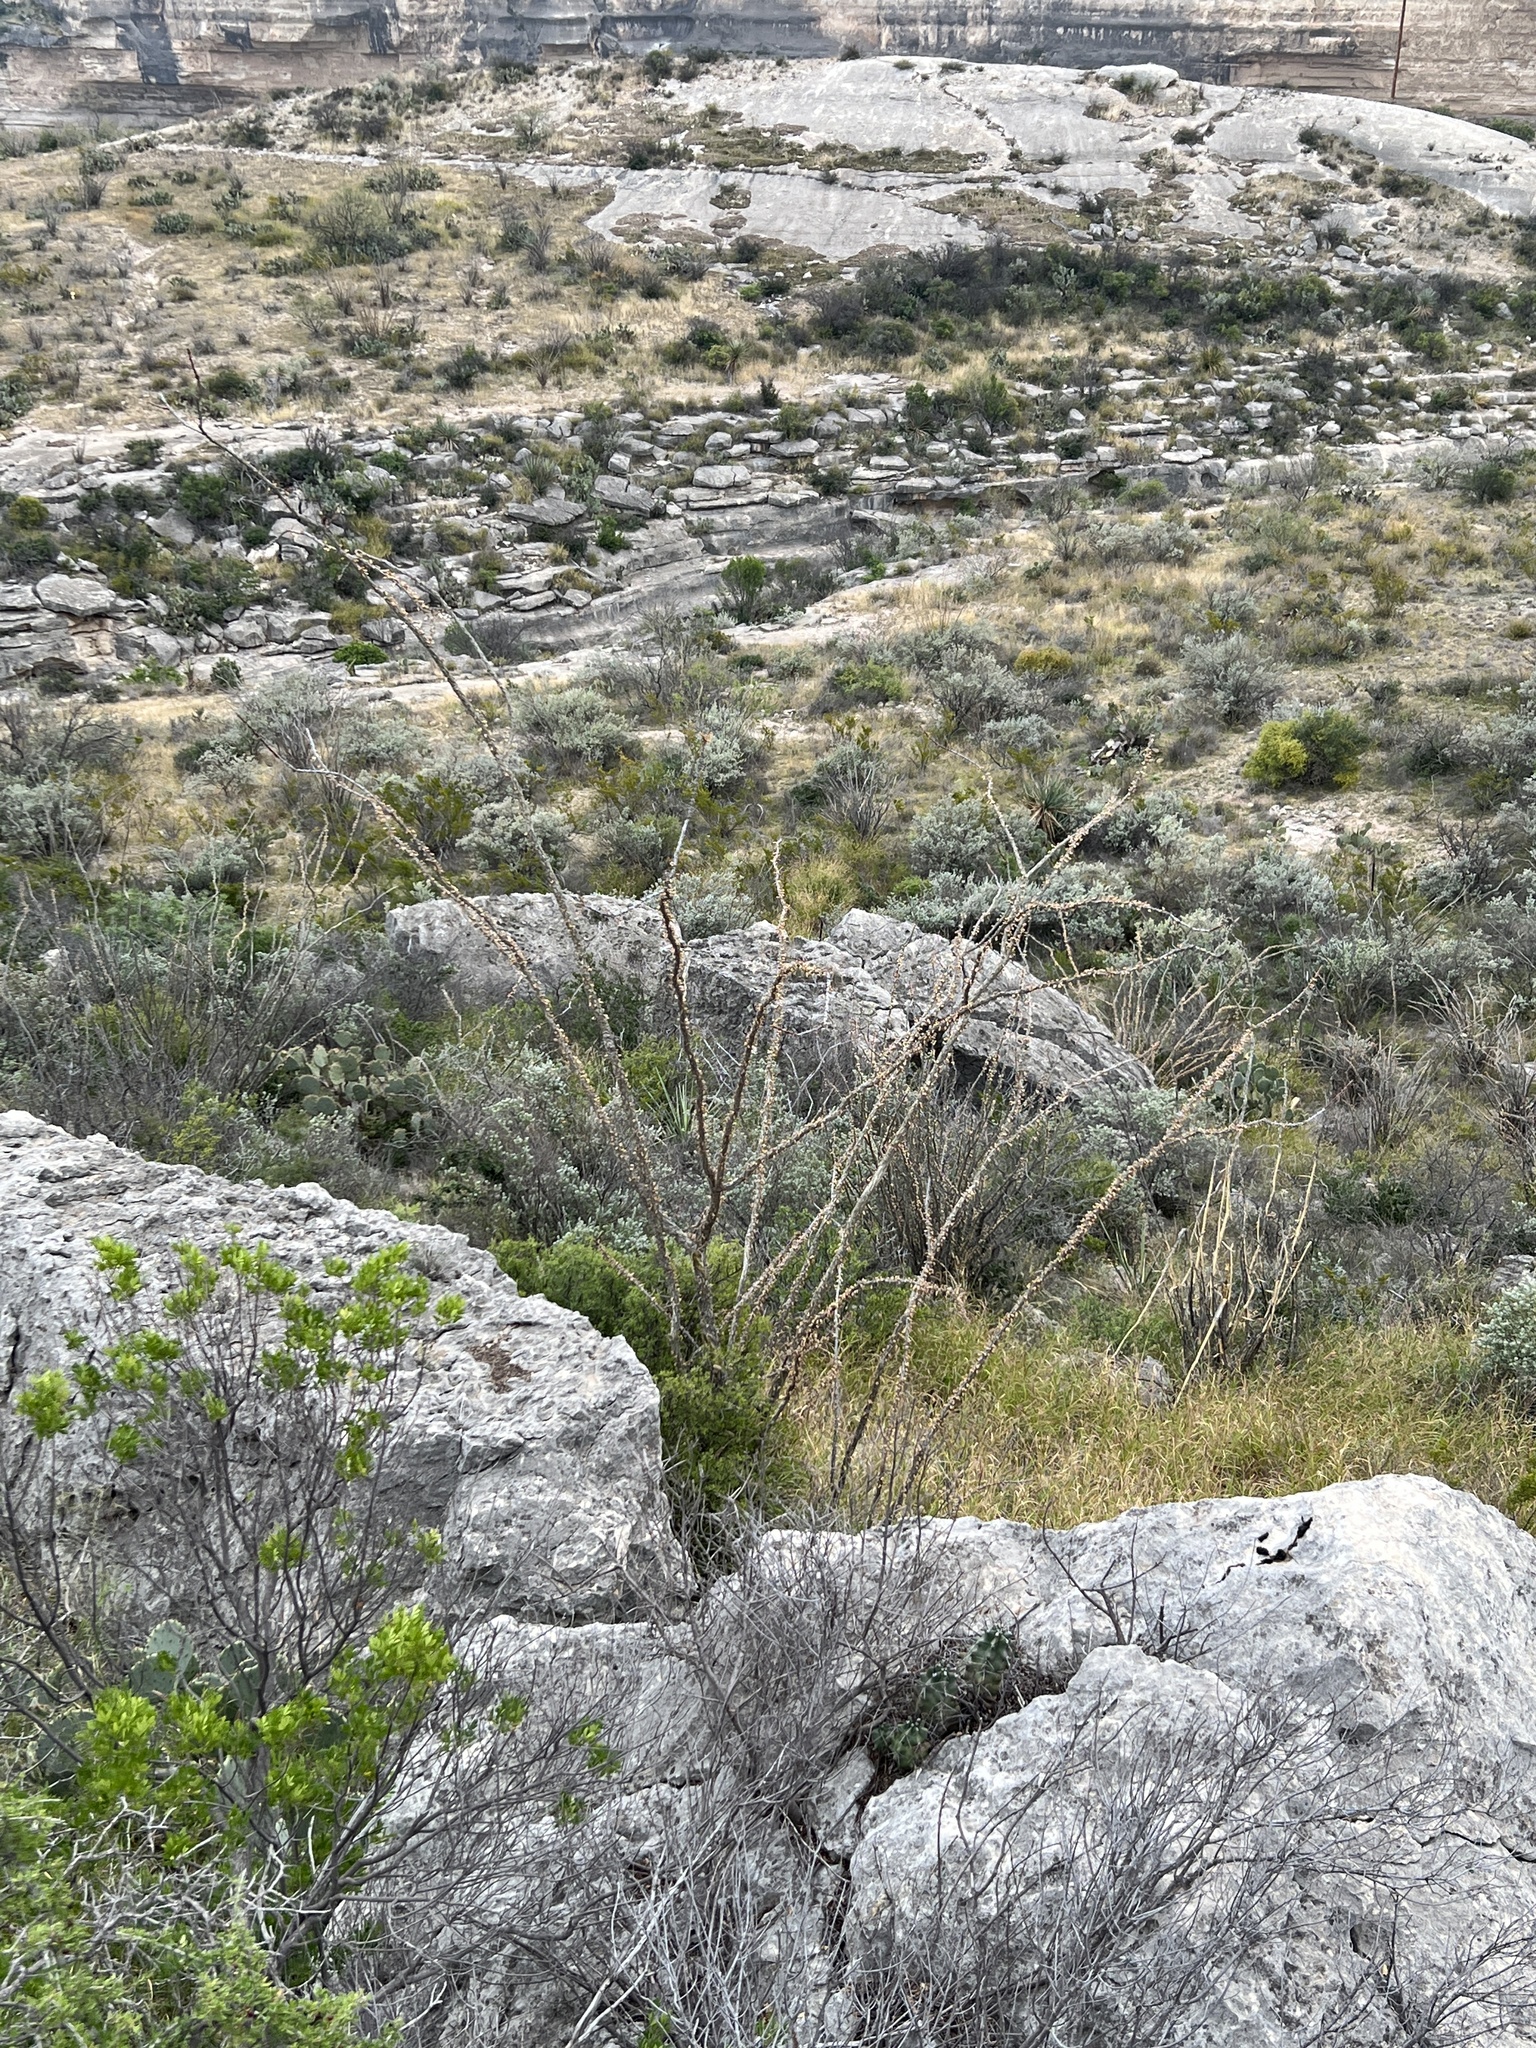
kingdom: Plantae
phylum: Tracheophyta
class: Magnoliopsida
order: Ericales
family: Fouquieriaceae
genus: Fouquieria
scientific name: Fouquieria splendens
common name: Vine-cactus
